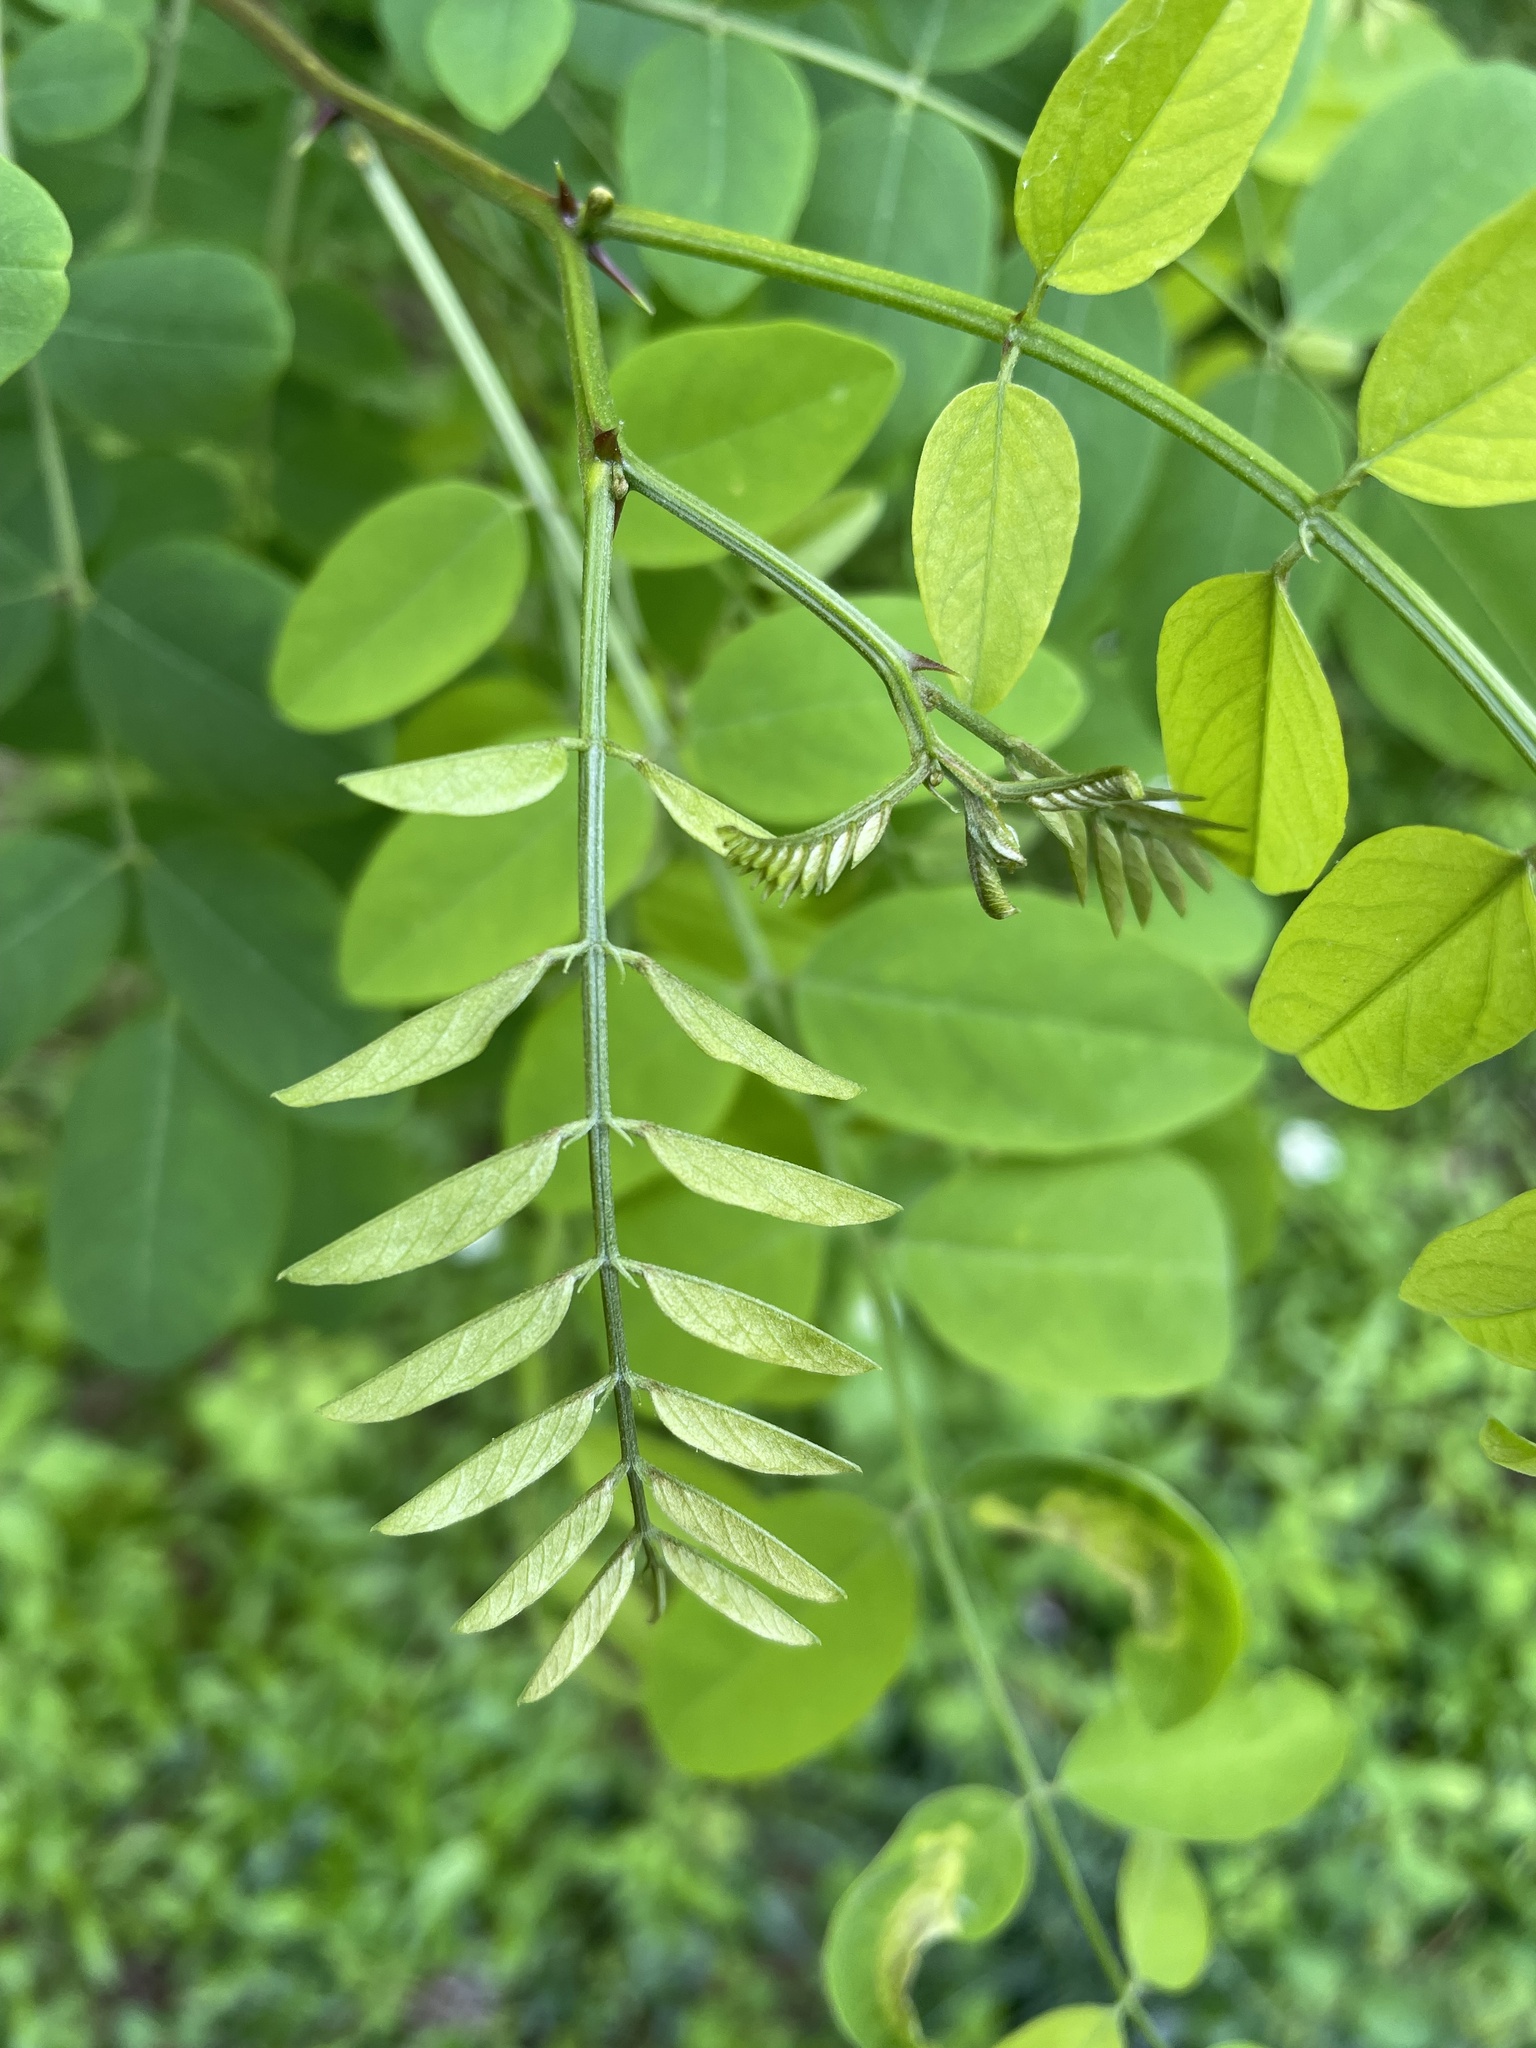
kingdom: Plantae
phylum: Tracheophyta
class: Magnoliopsida
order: Fabales
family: Fabaceae
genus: Robinia
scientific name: Robinia pseudoacacia
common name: Black locust
